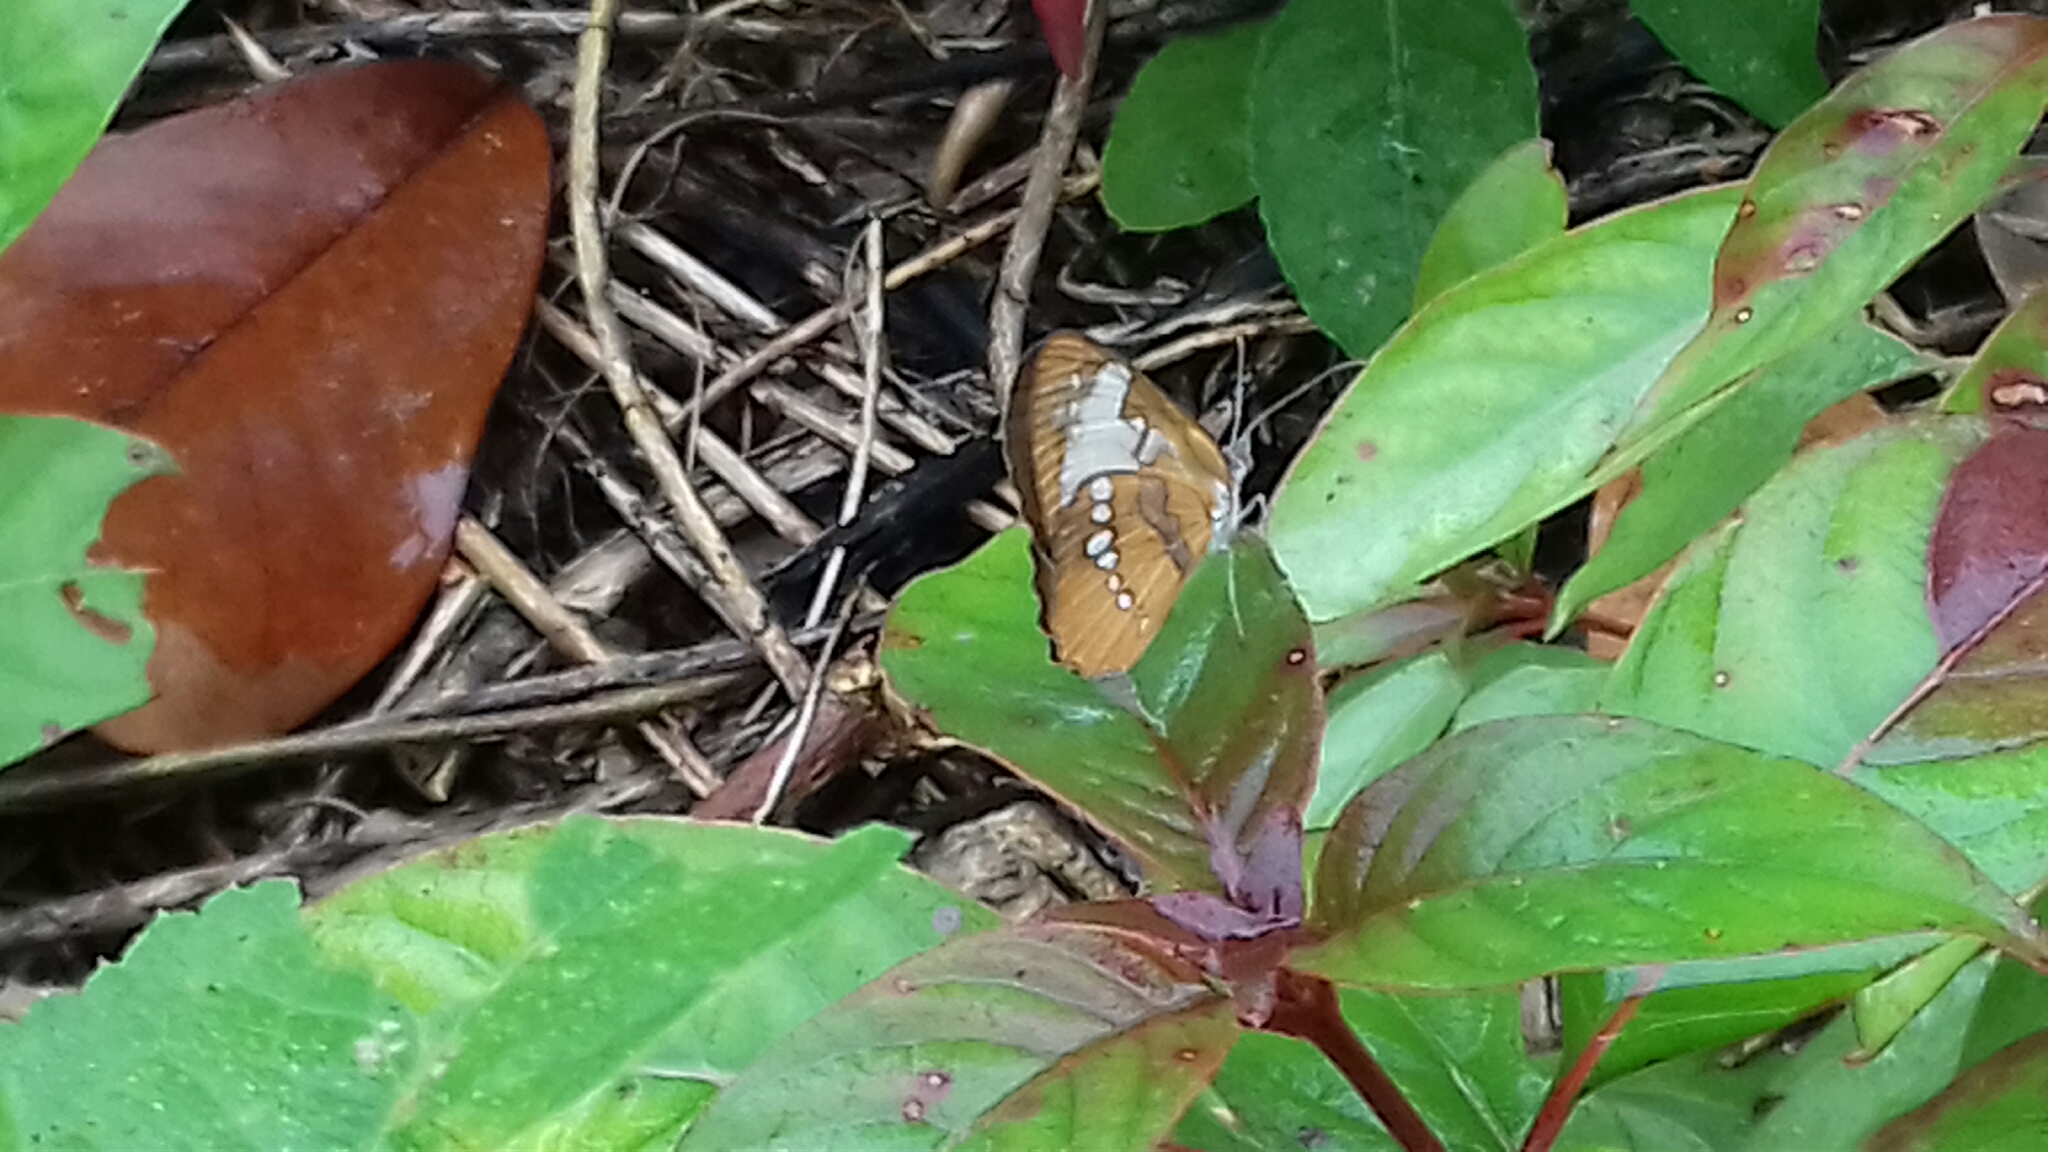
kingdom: Animalia
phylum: Arthropoda
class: Insecta
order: Lepidoptera
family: Nymphalidae
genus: Mestra
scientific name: Mestra amymone
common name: Common mestra
